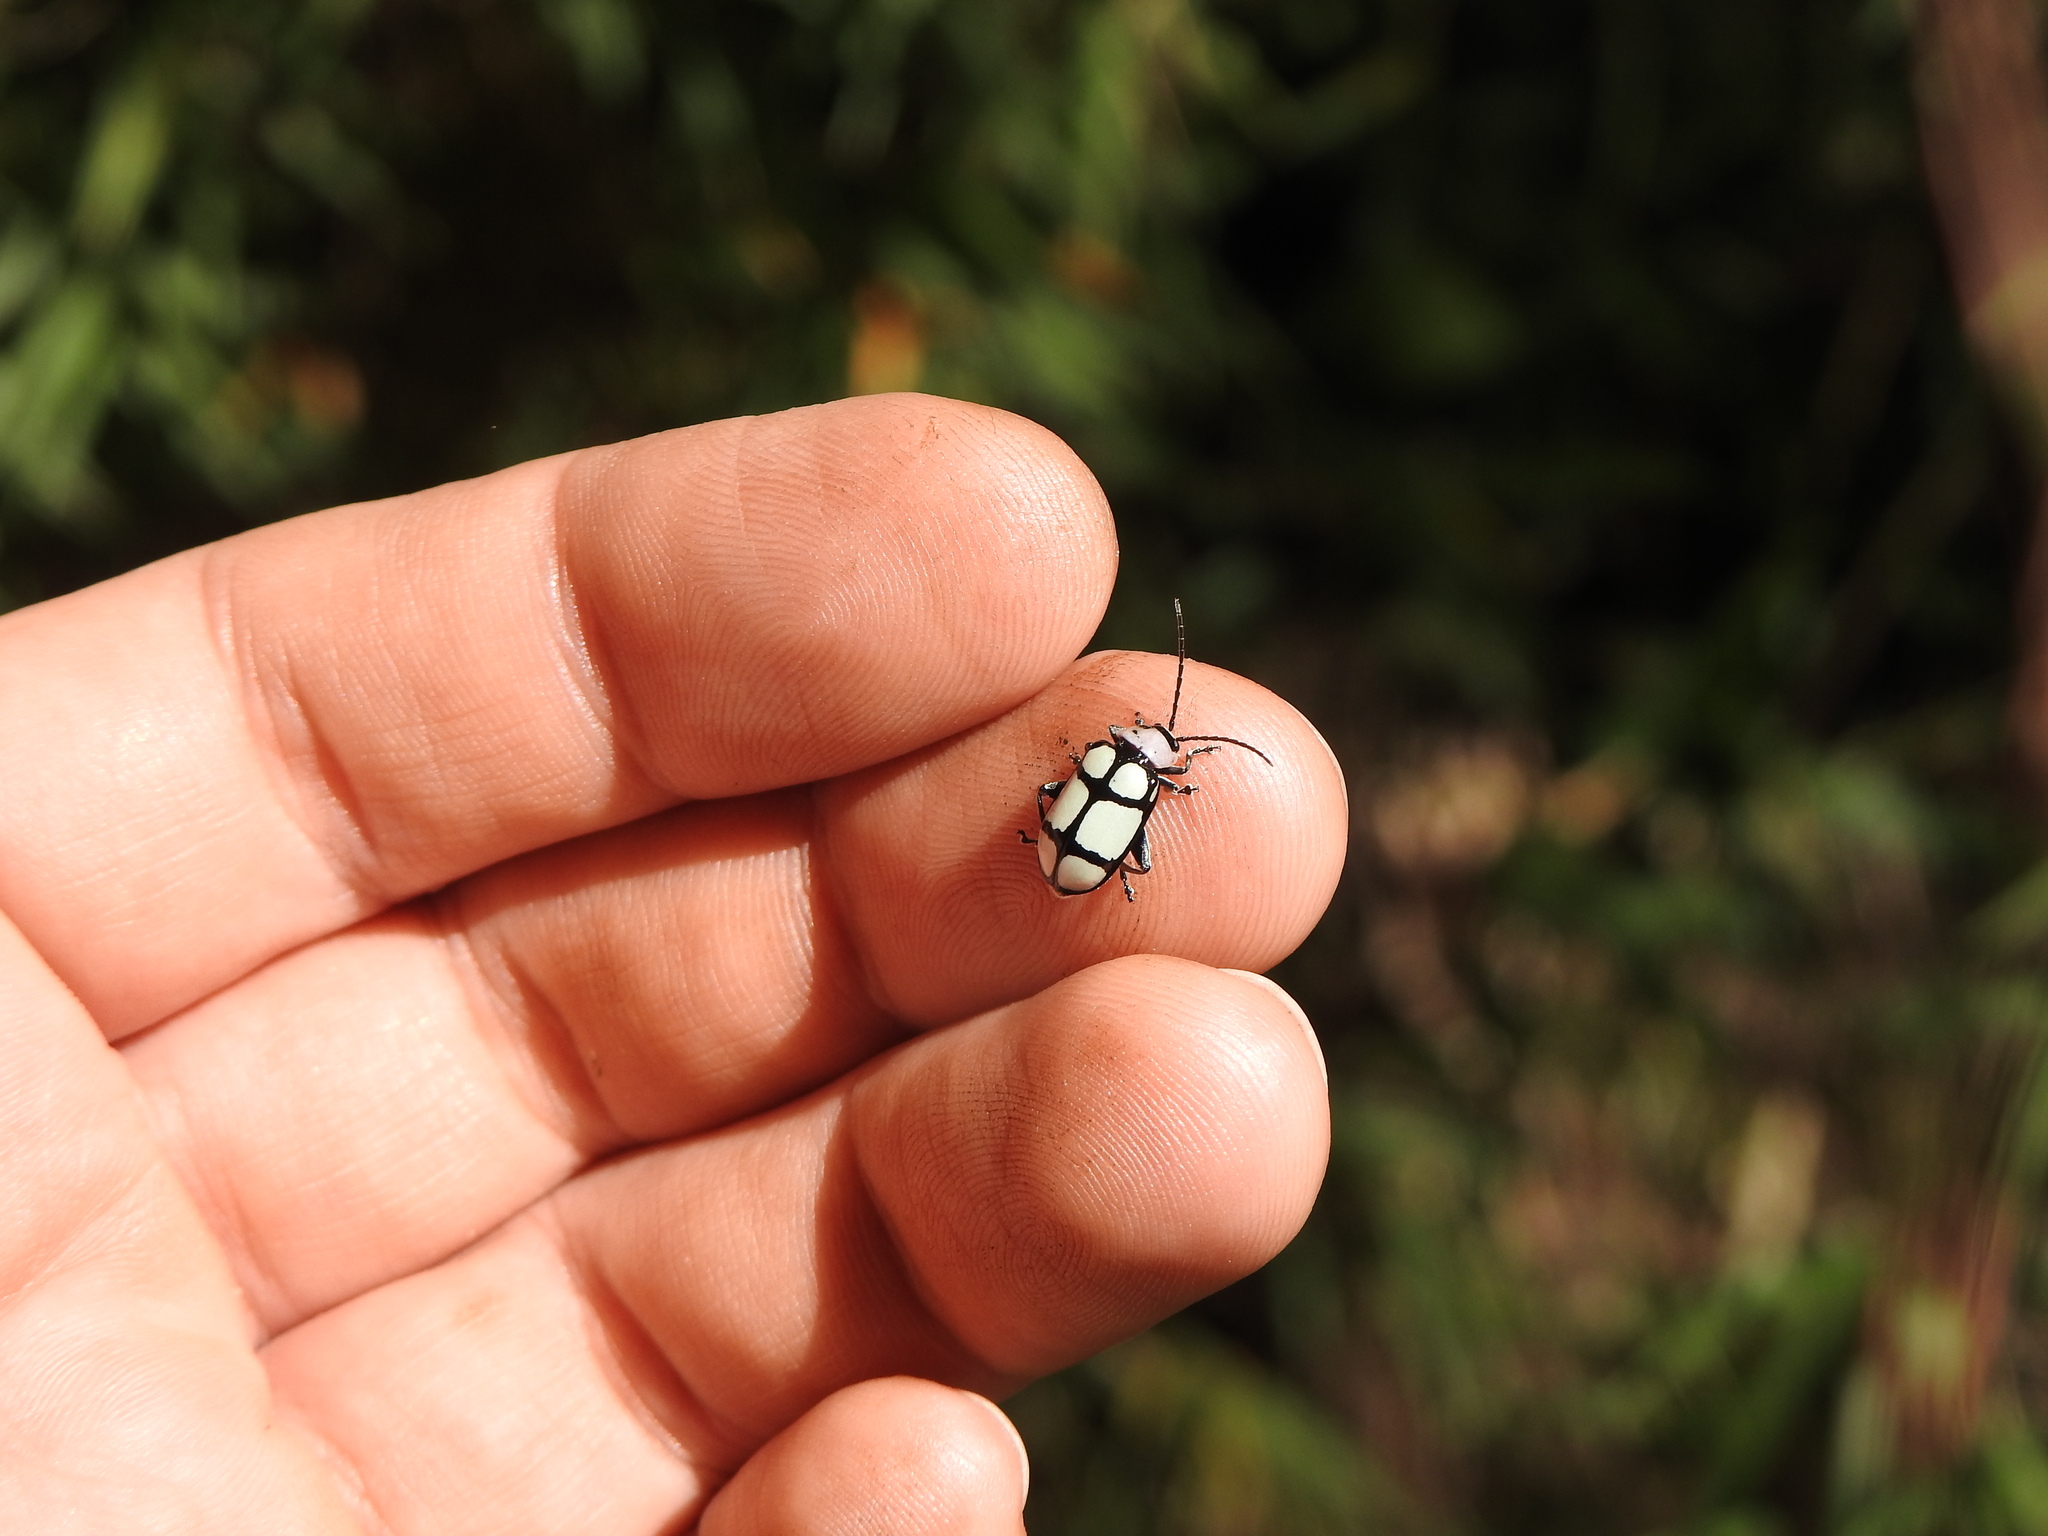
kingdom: Animalia
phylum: Arthropoda
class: Insecta
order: Coleoptera
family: Chrysomelidae
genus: Omophoita
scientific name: Omophoita
